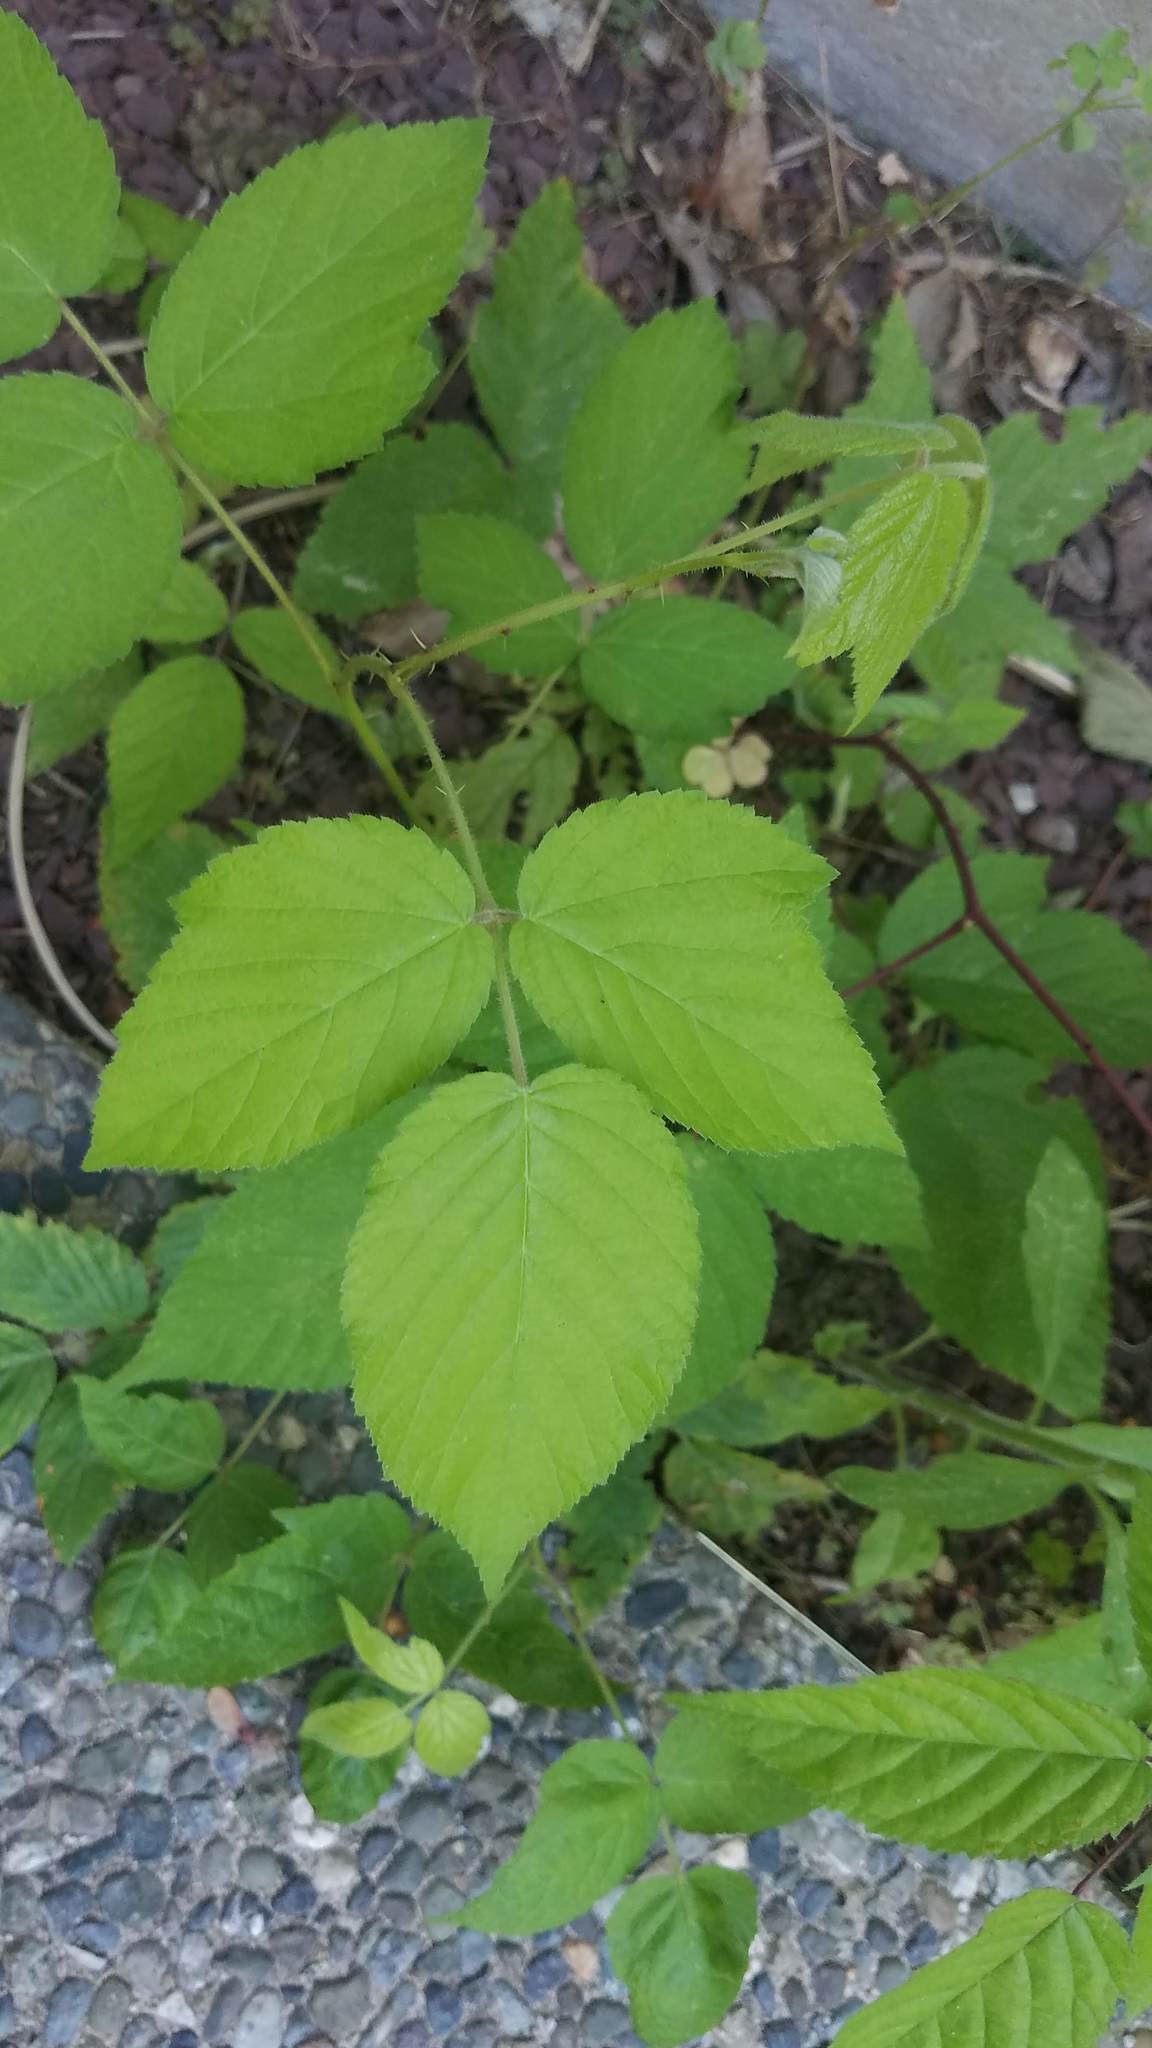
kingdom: Plantae
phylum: Tracheophyta
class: Magnoliopsida
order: Rosales
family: Rosaceae
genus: Rubus
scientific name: Rubus occidentalis
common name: Black raspberry
